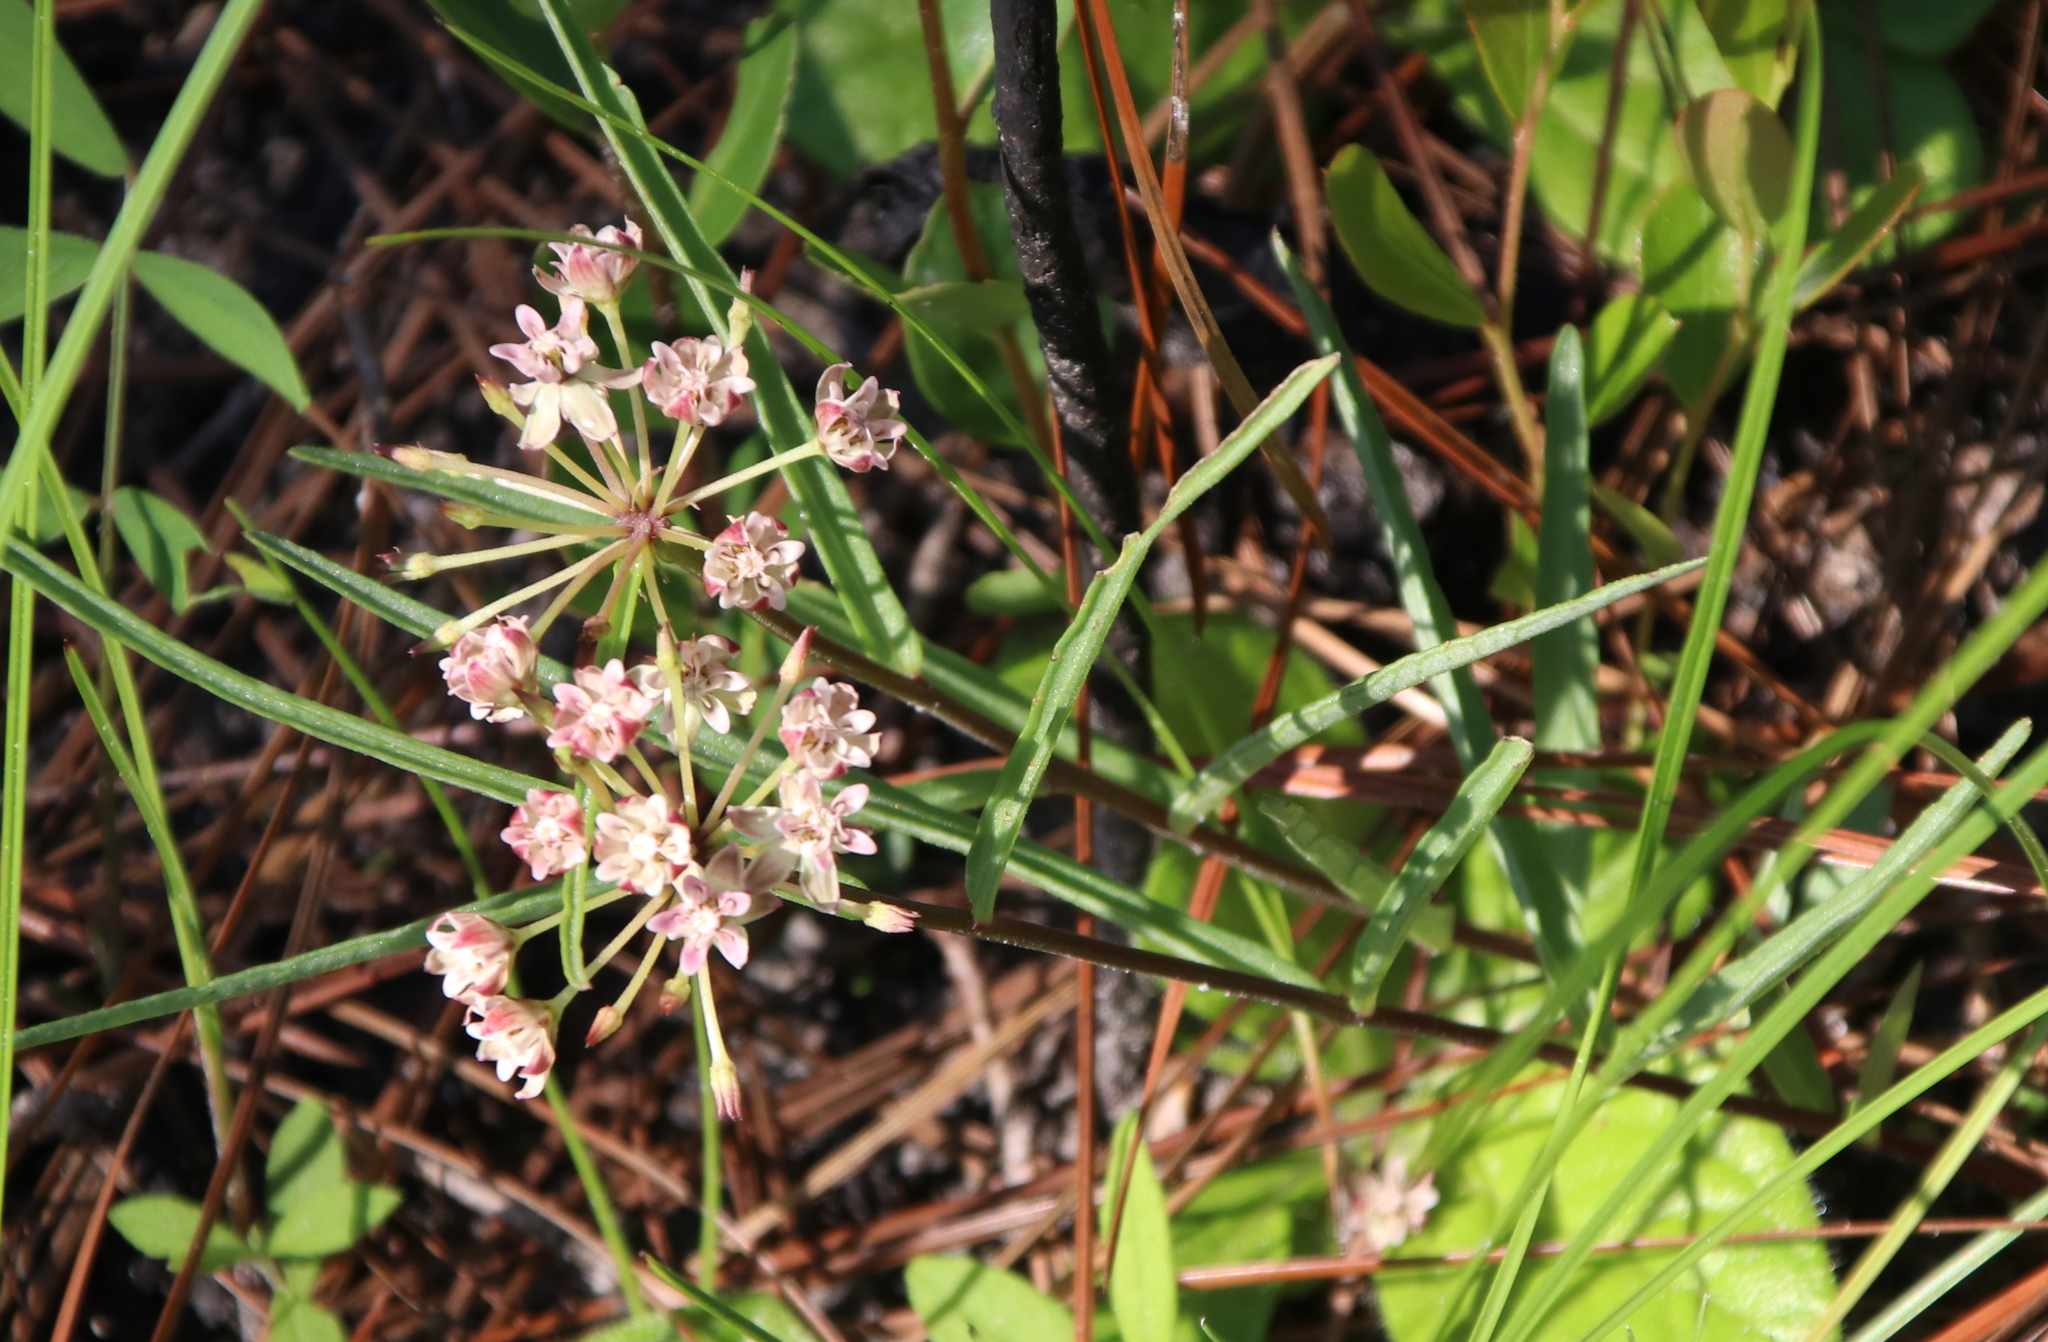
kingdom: Plantae
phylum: Tracheophyta
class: Magnoliopsida
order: Gentianales
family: Apocynaceae
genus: Asclepias
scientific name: Asclepias michauxii
